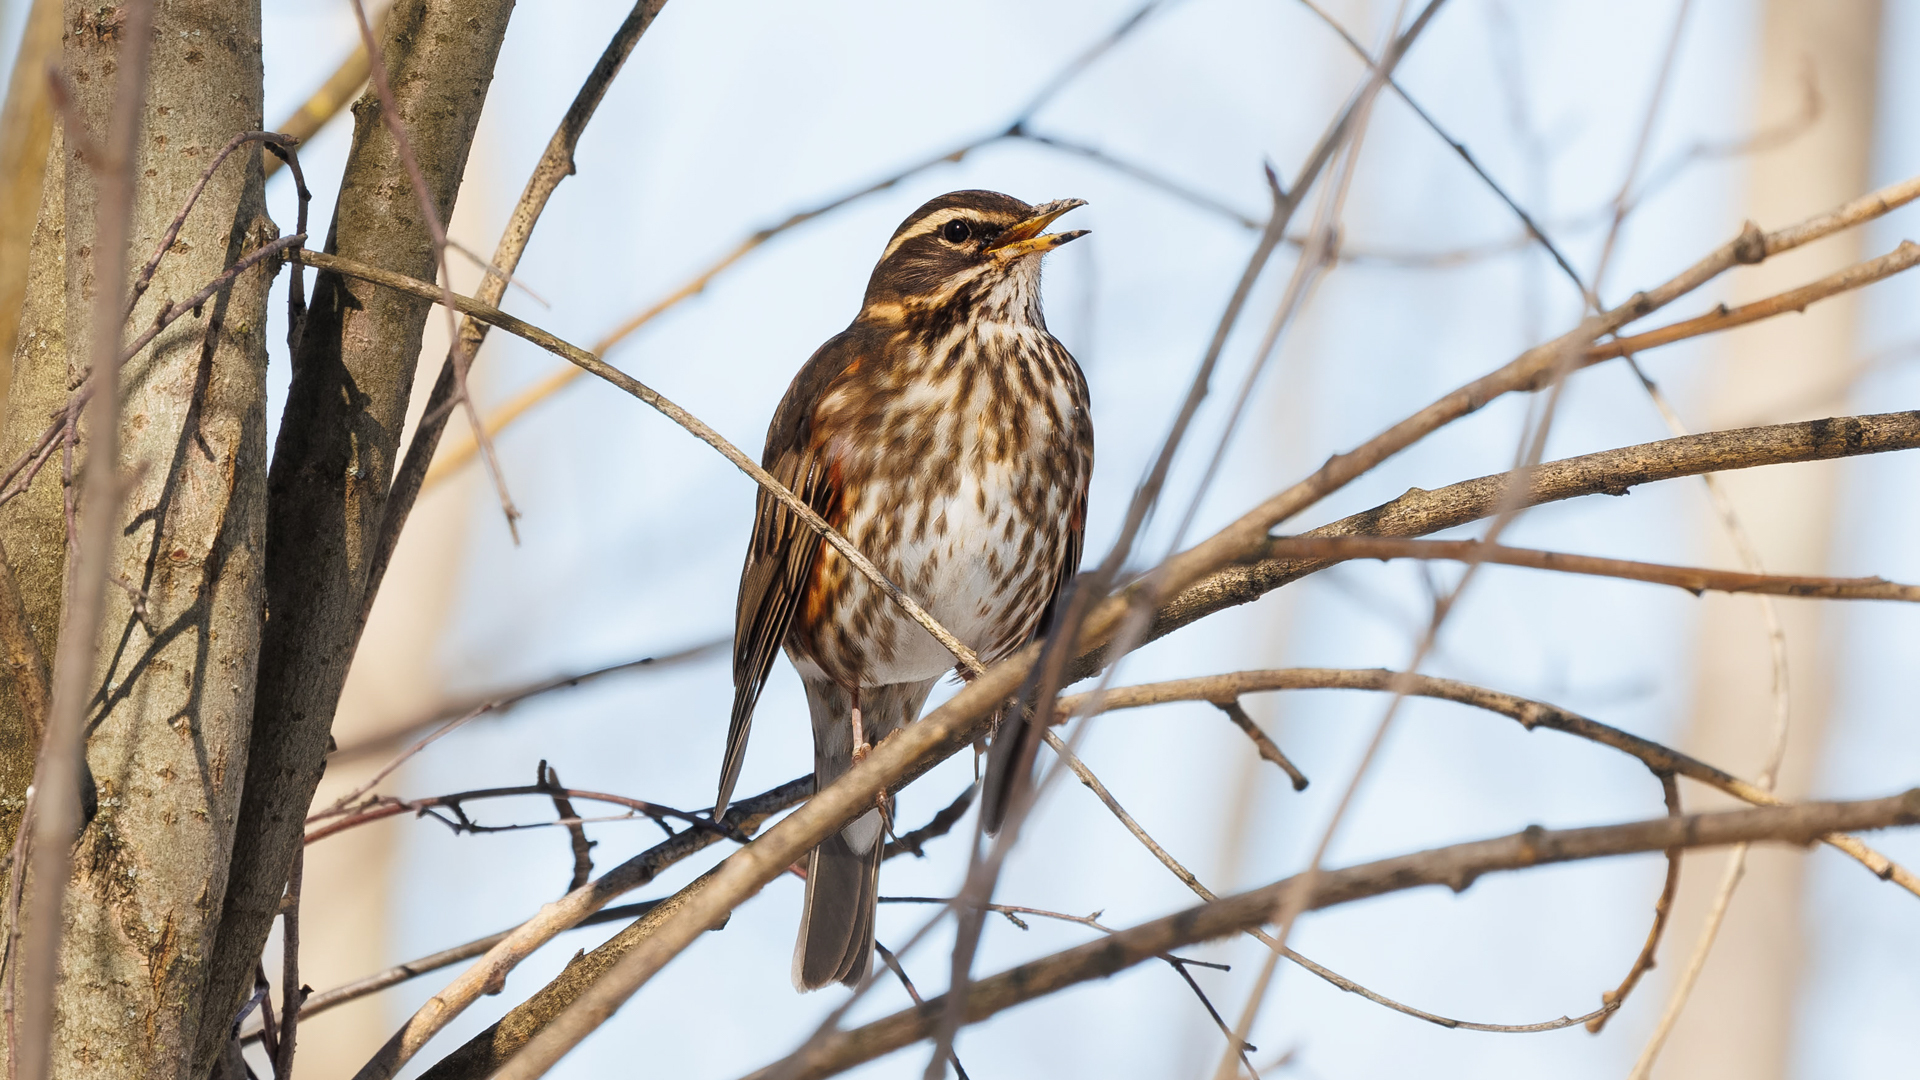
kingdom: Animalia
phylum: Chordata
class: Aves
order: Passeriformes
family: Turdidae
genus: Turdus
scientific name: Turdus iliacus
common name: Redwing
